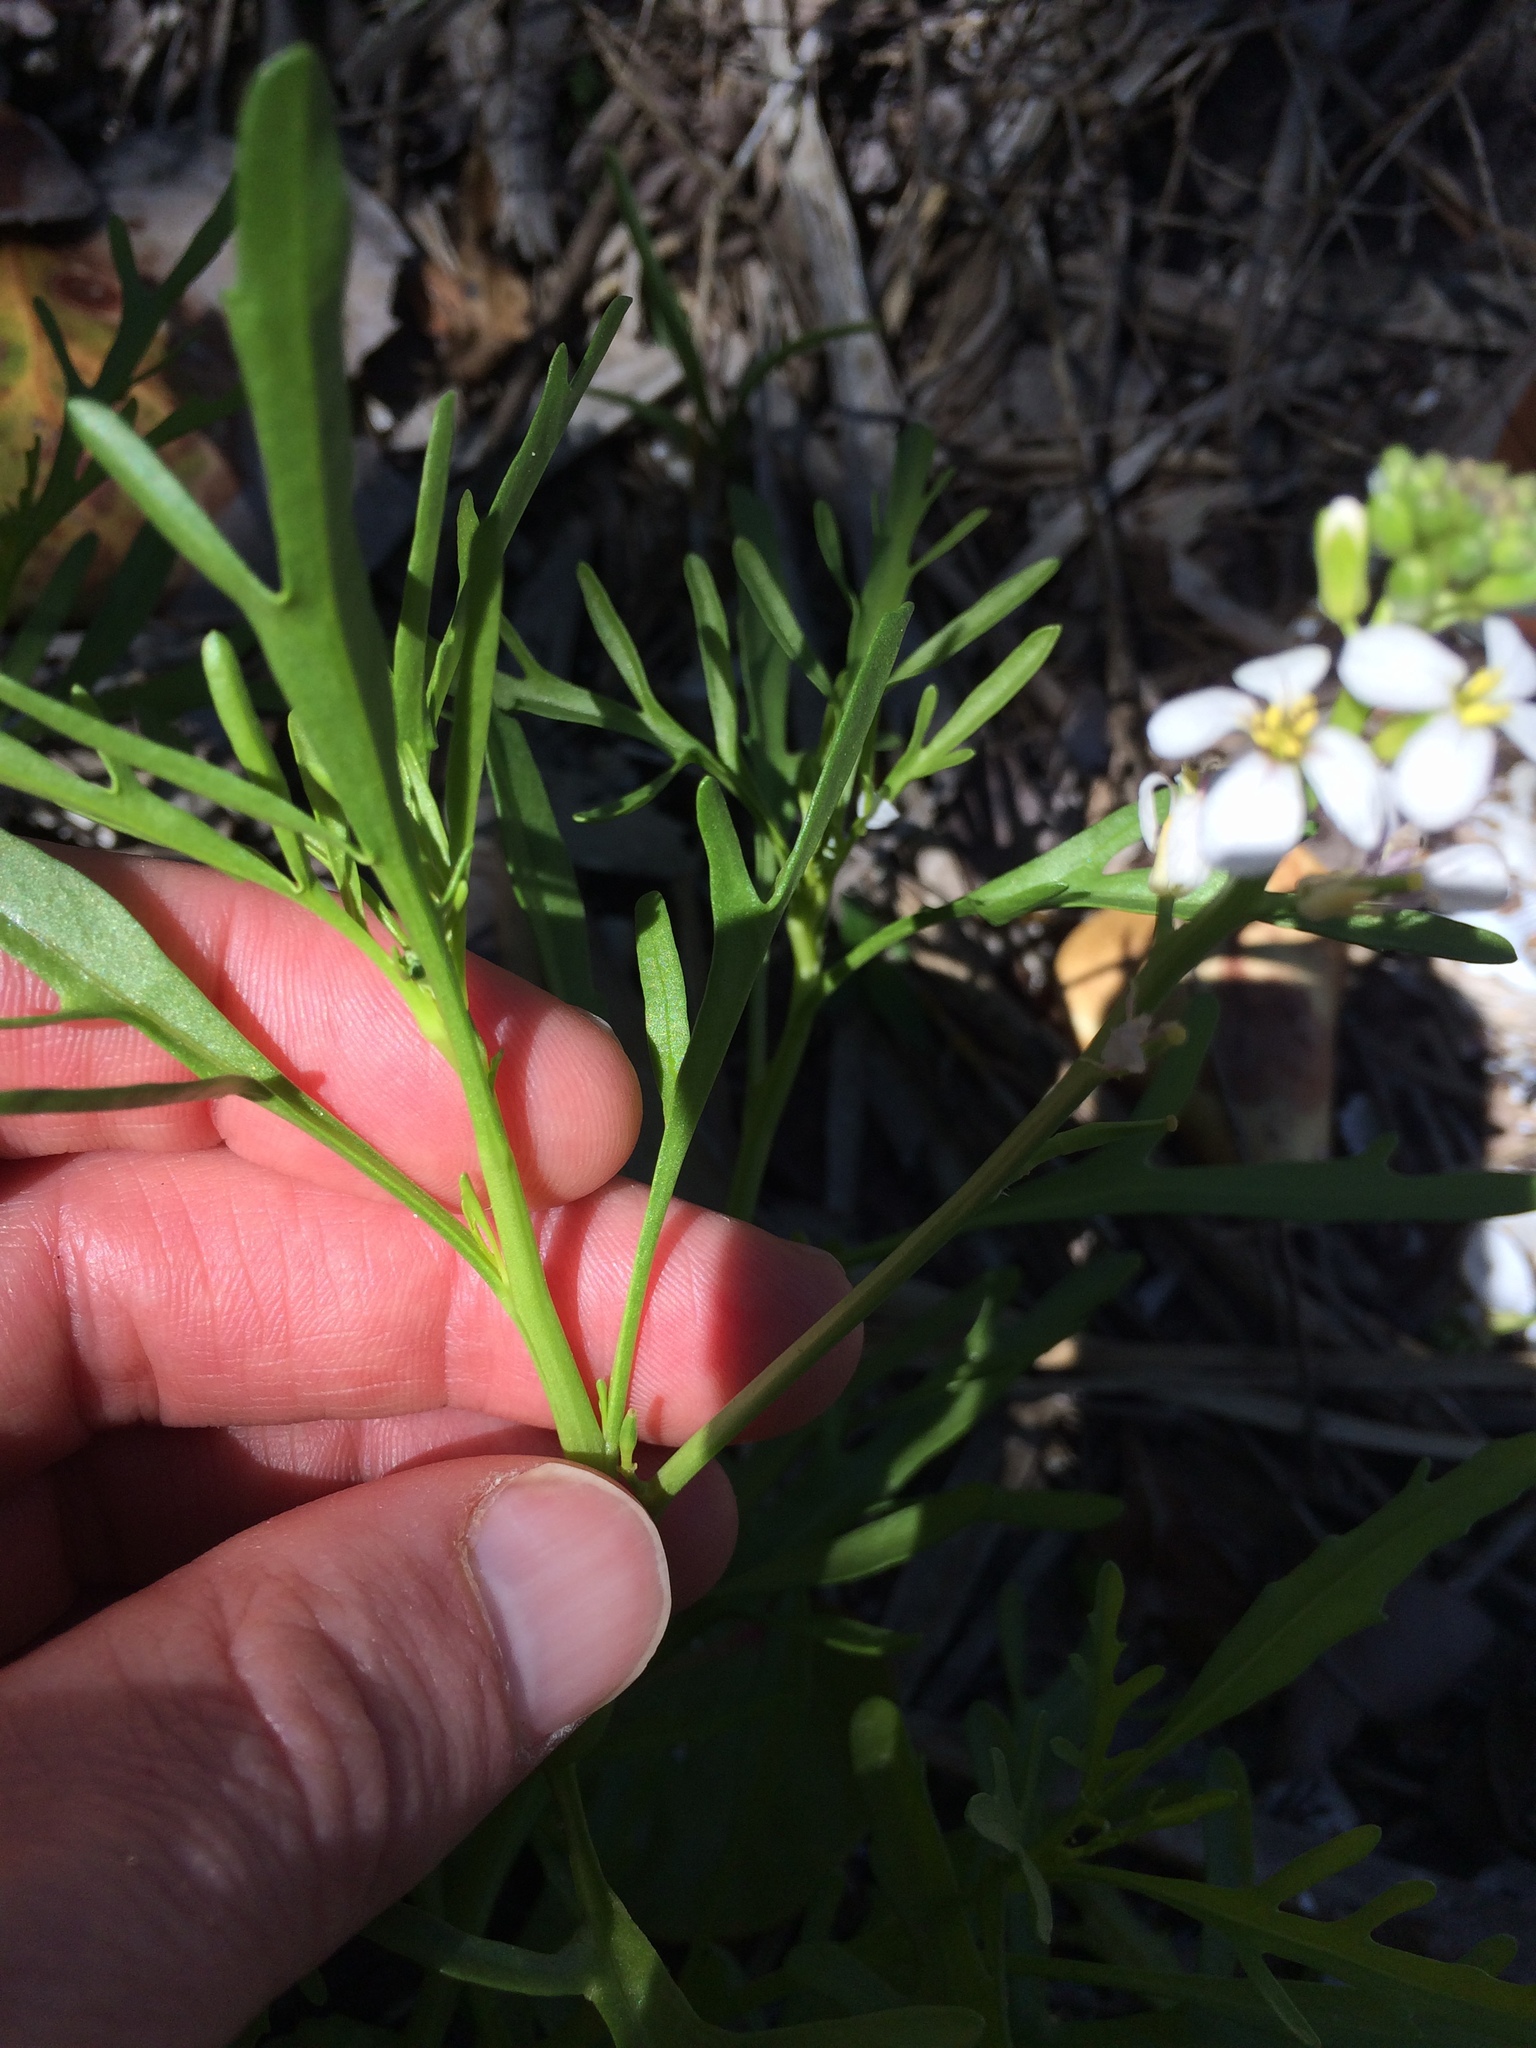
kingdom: Plantae
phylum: Tracheophyta
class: Magnoliopsida
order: Brassicales
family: Brassicaceae
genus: Cakile
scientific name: Cakile lanceolata
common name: Sea rocket
